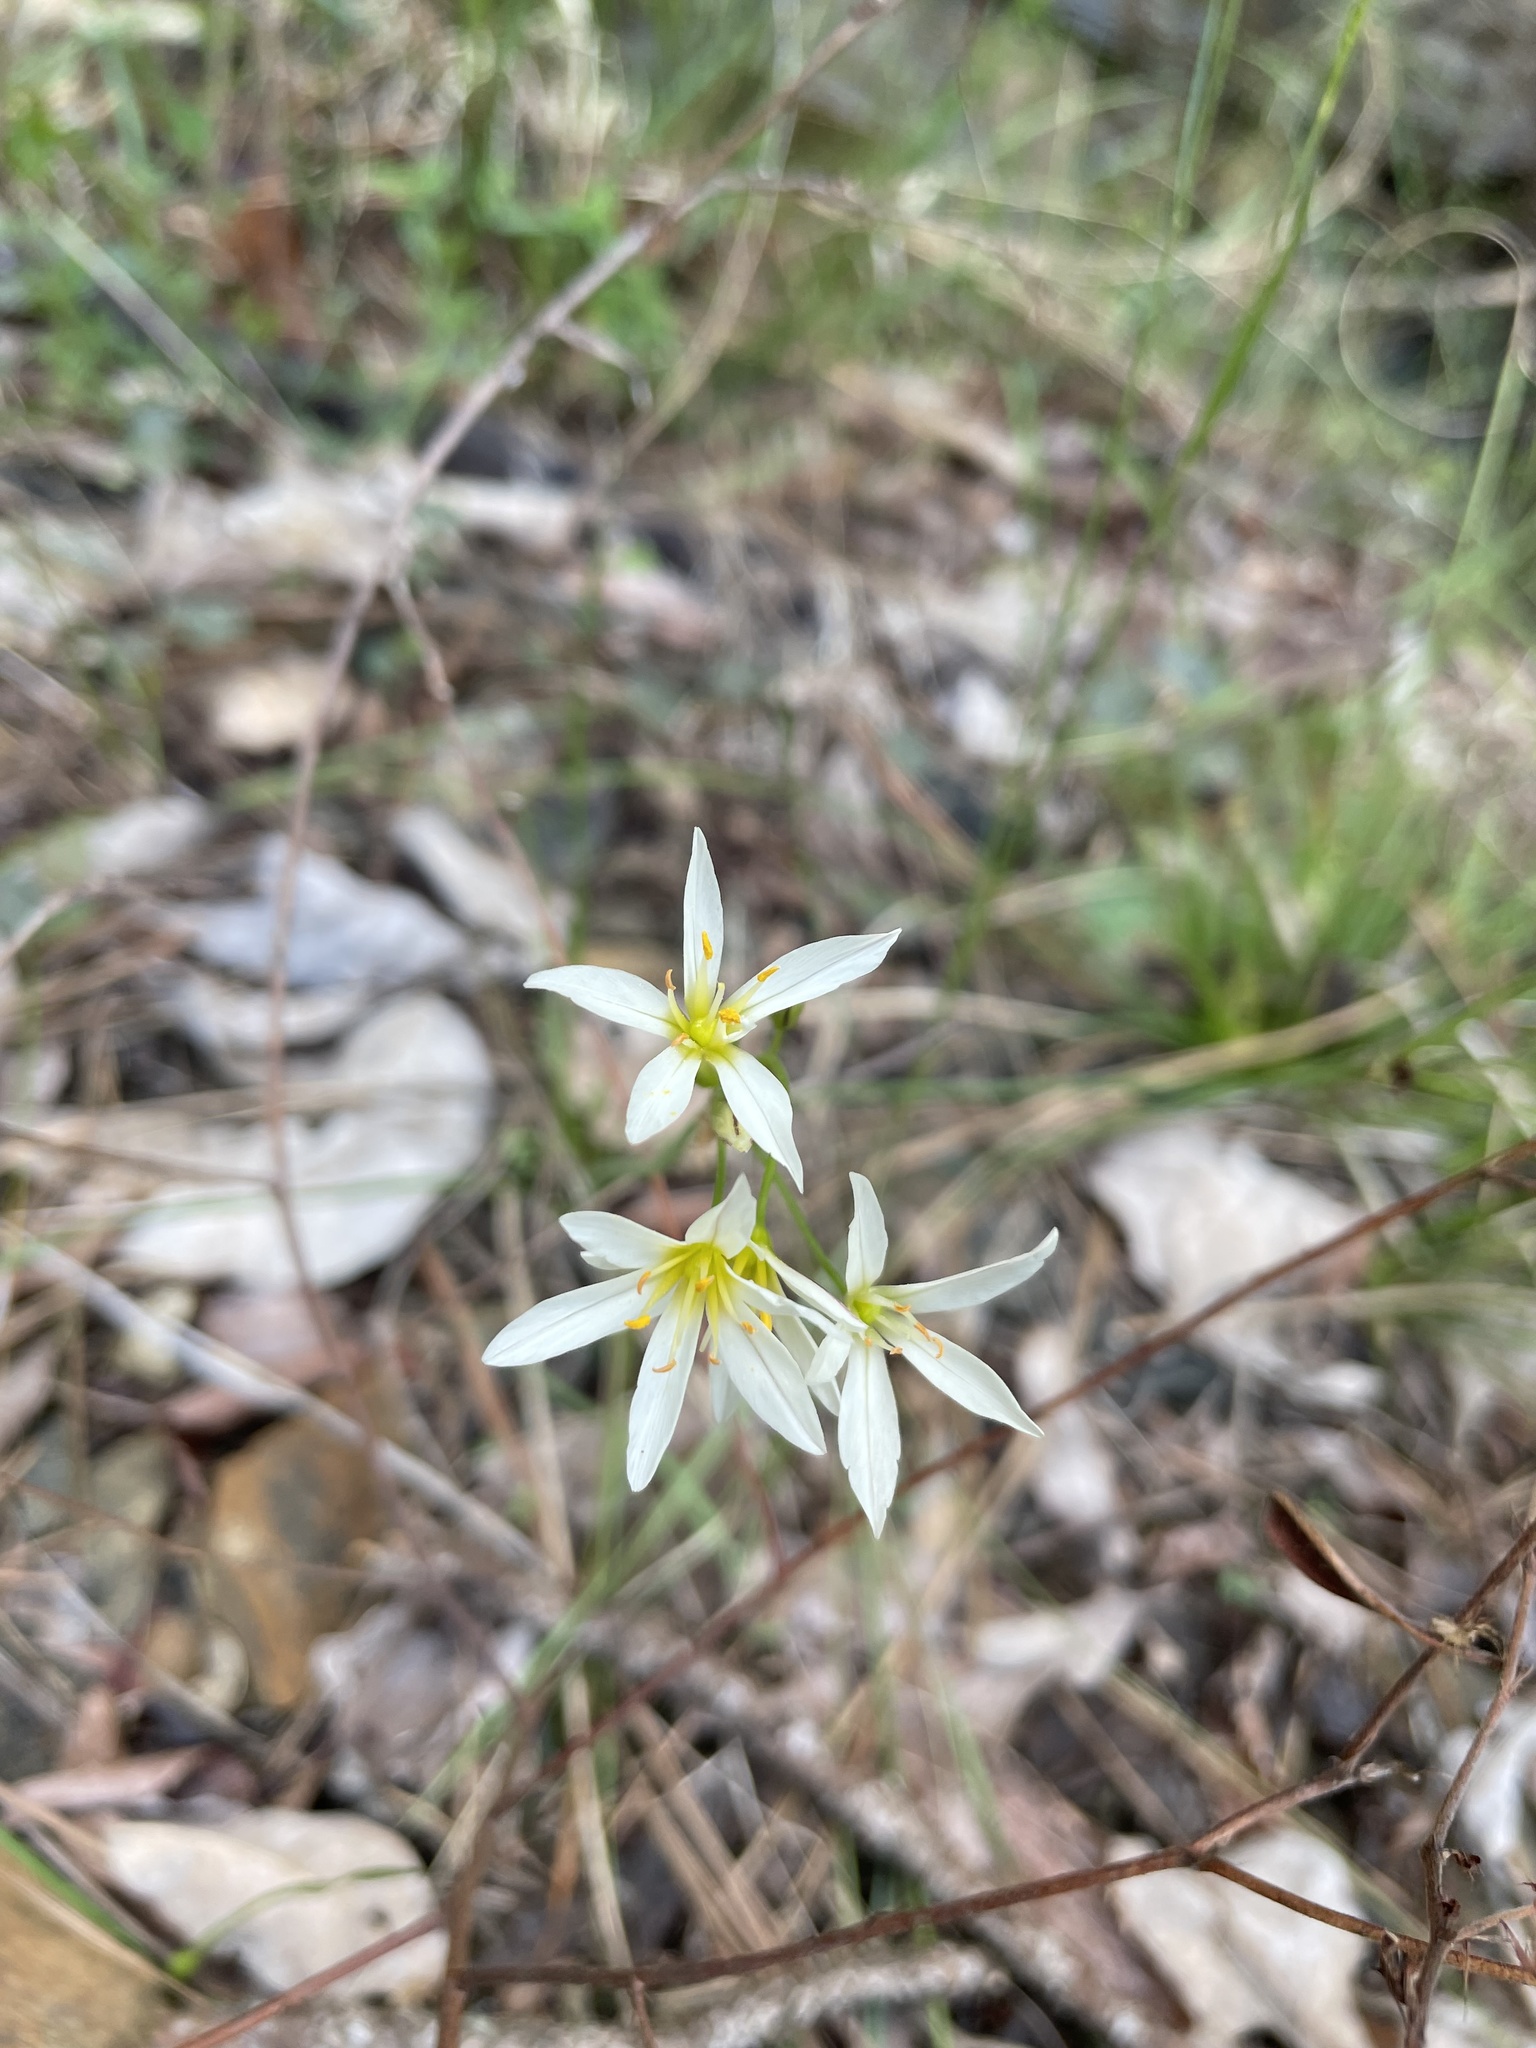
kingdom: Plantae
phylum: Tracheophyta
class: Liliopsida
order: Asparagales
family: Amaryllidaceae
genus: Nothoscordum
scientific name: Nothoscordum bivalve
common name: Crow-poison
